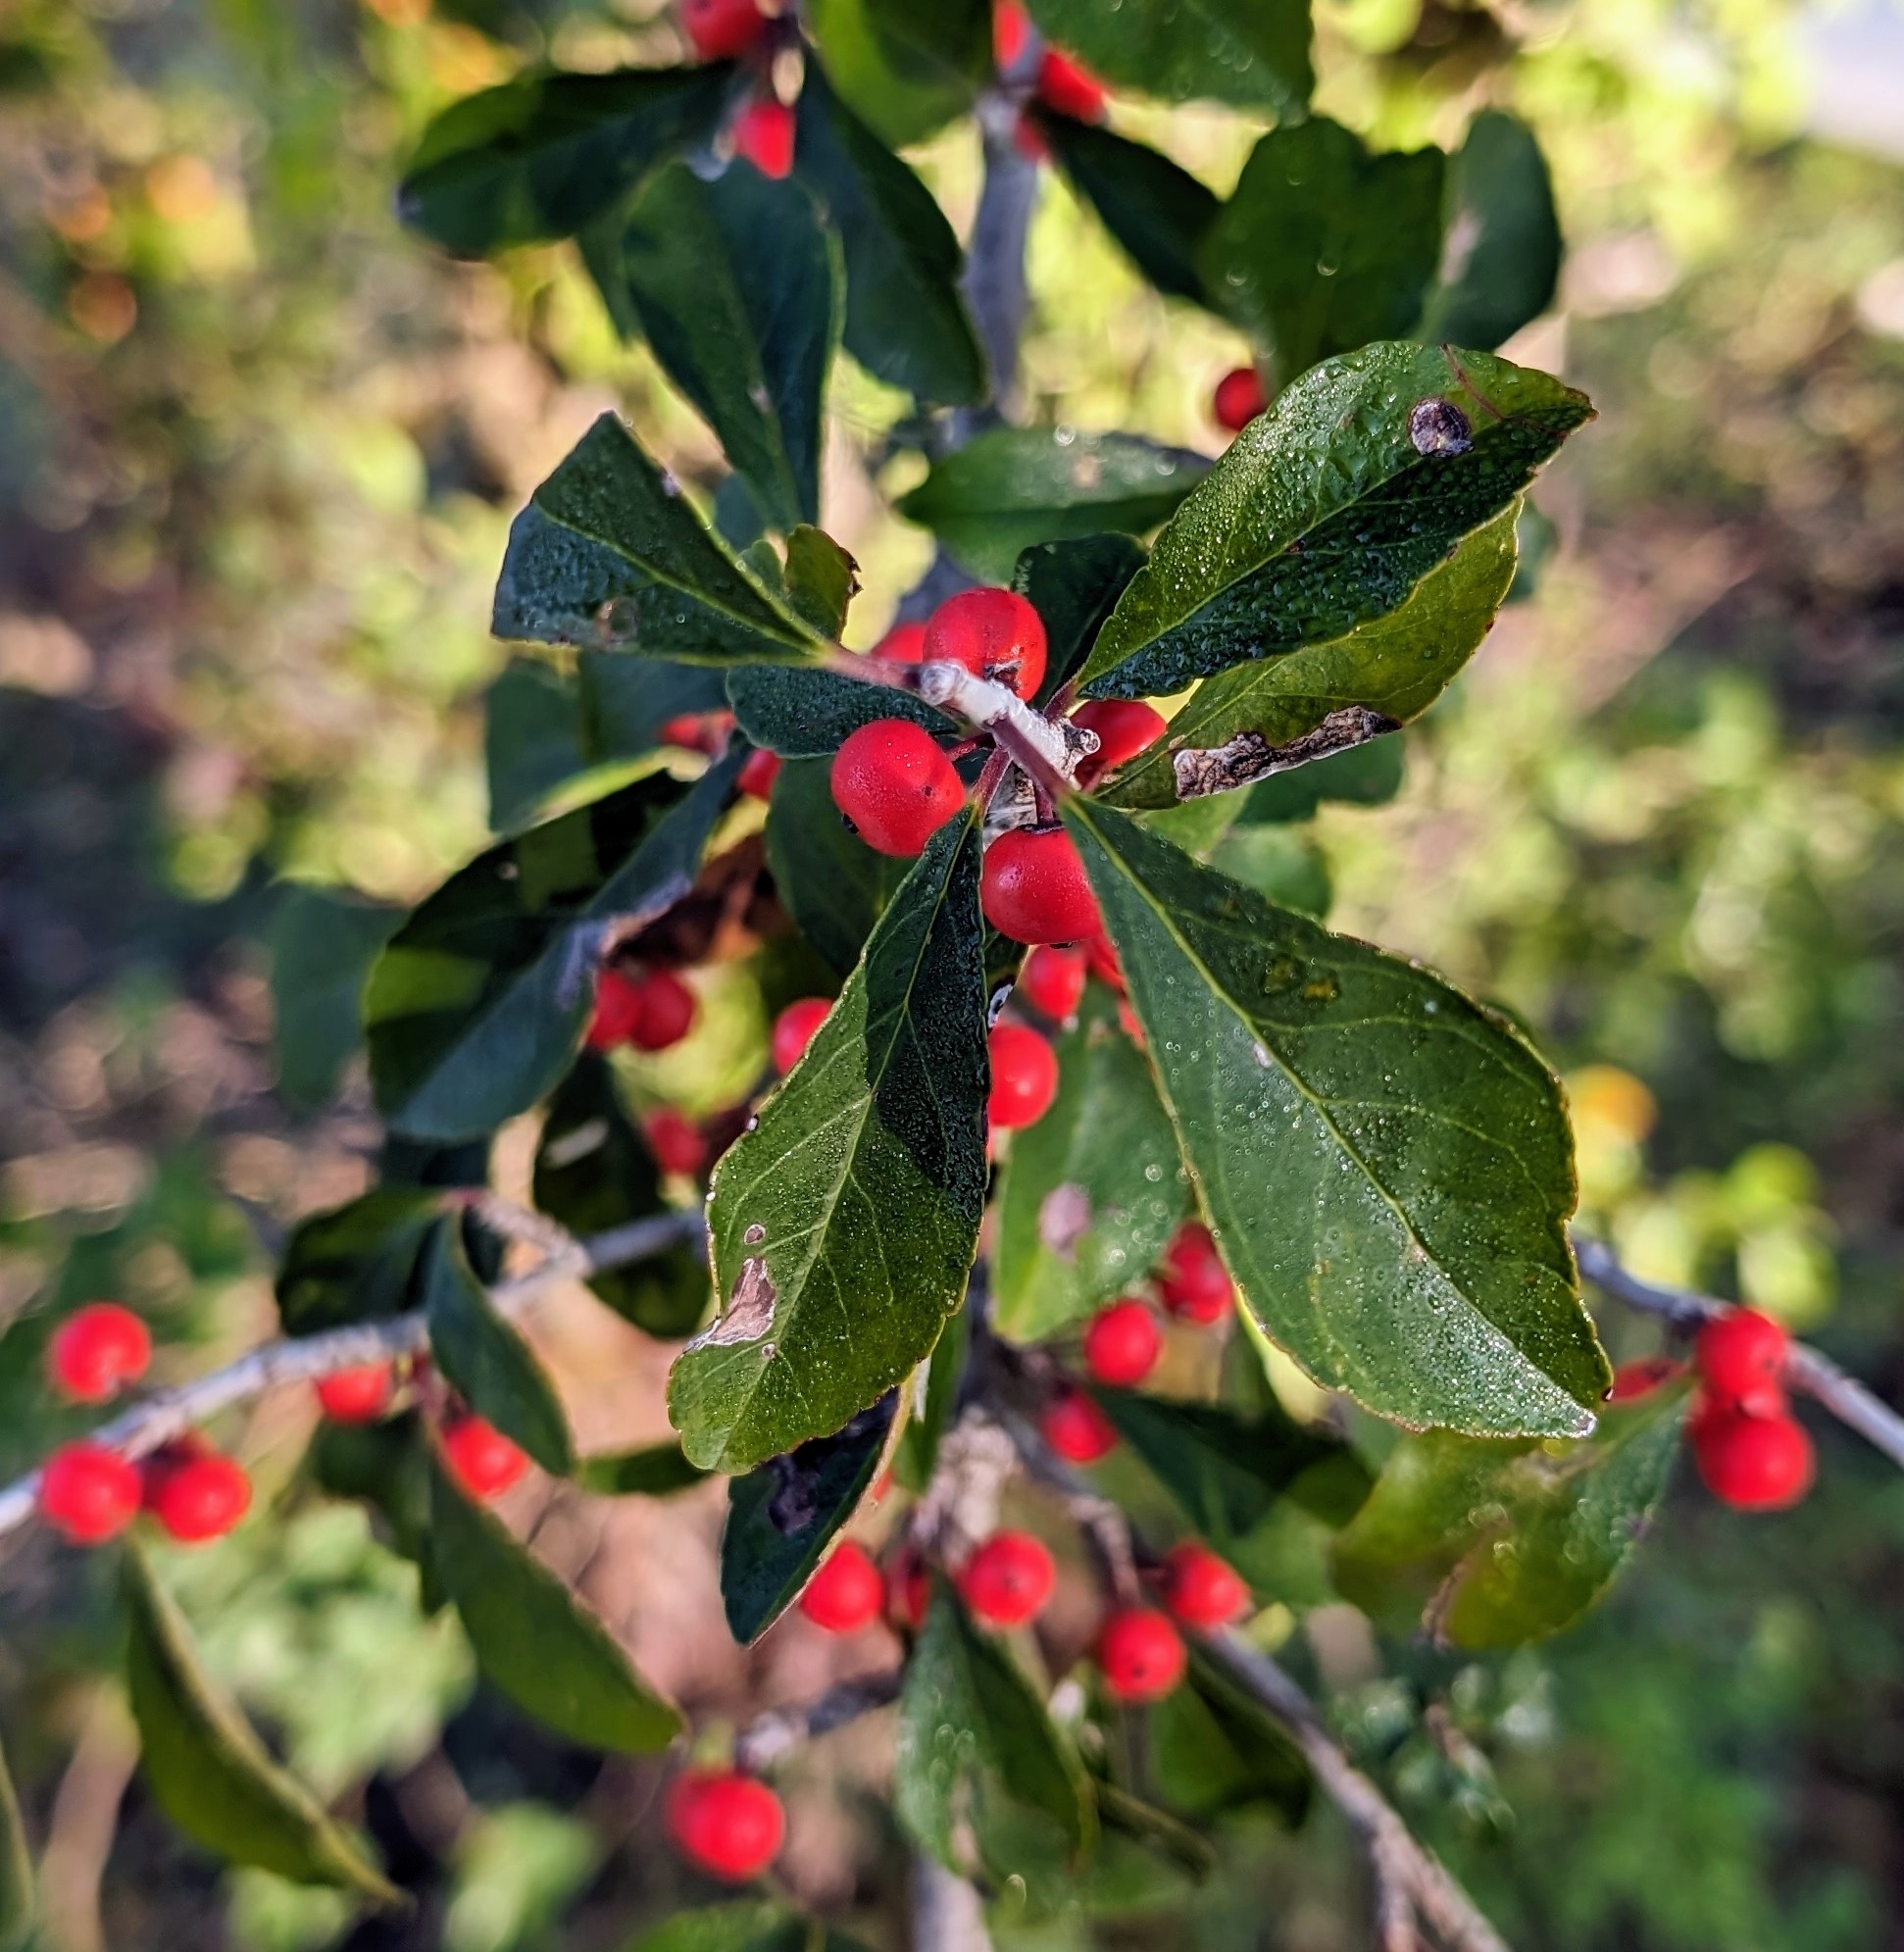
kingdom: Plantae
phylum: Tracheophyta
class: Magnoliopsida
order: Aquifoliales
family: Aquifoliaceae
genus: Ilex
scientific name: Ilex decidua
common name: Possum-haw
